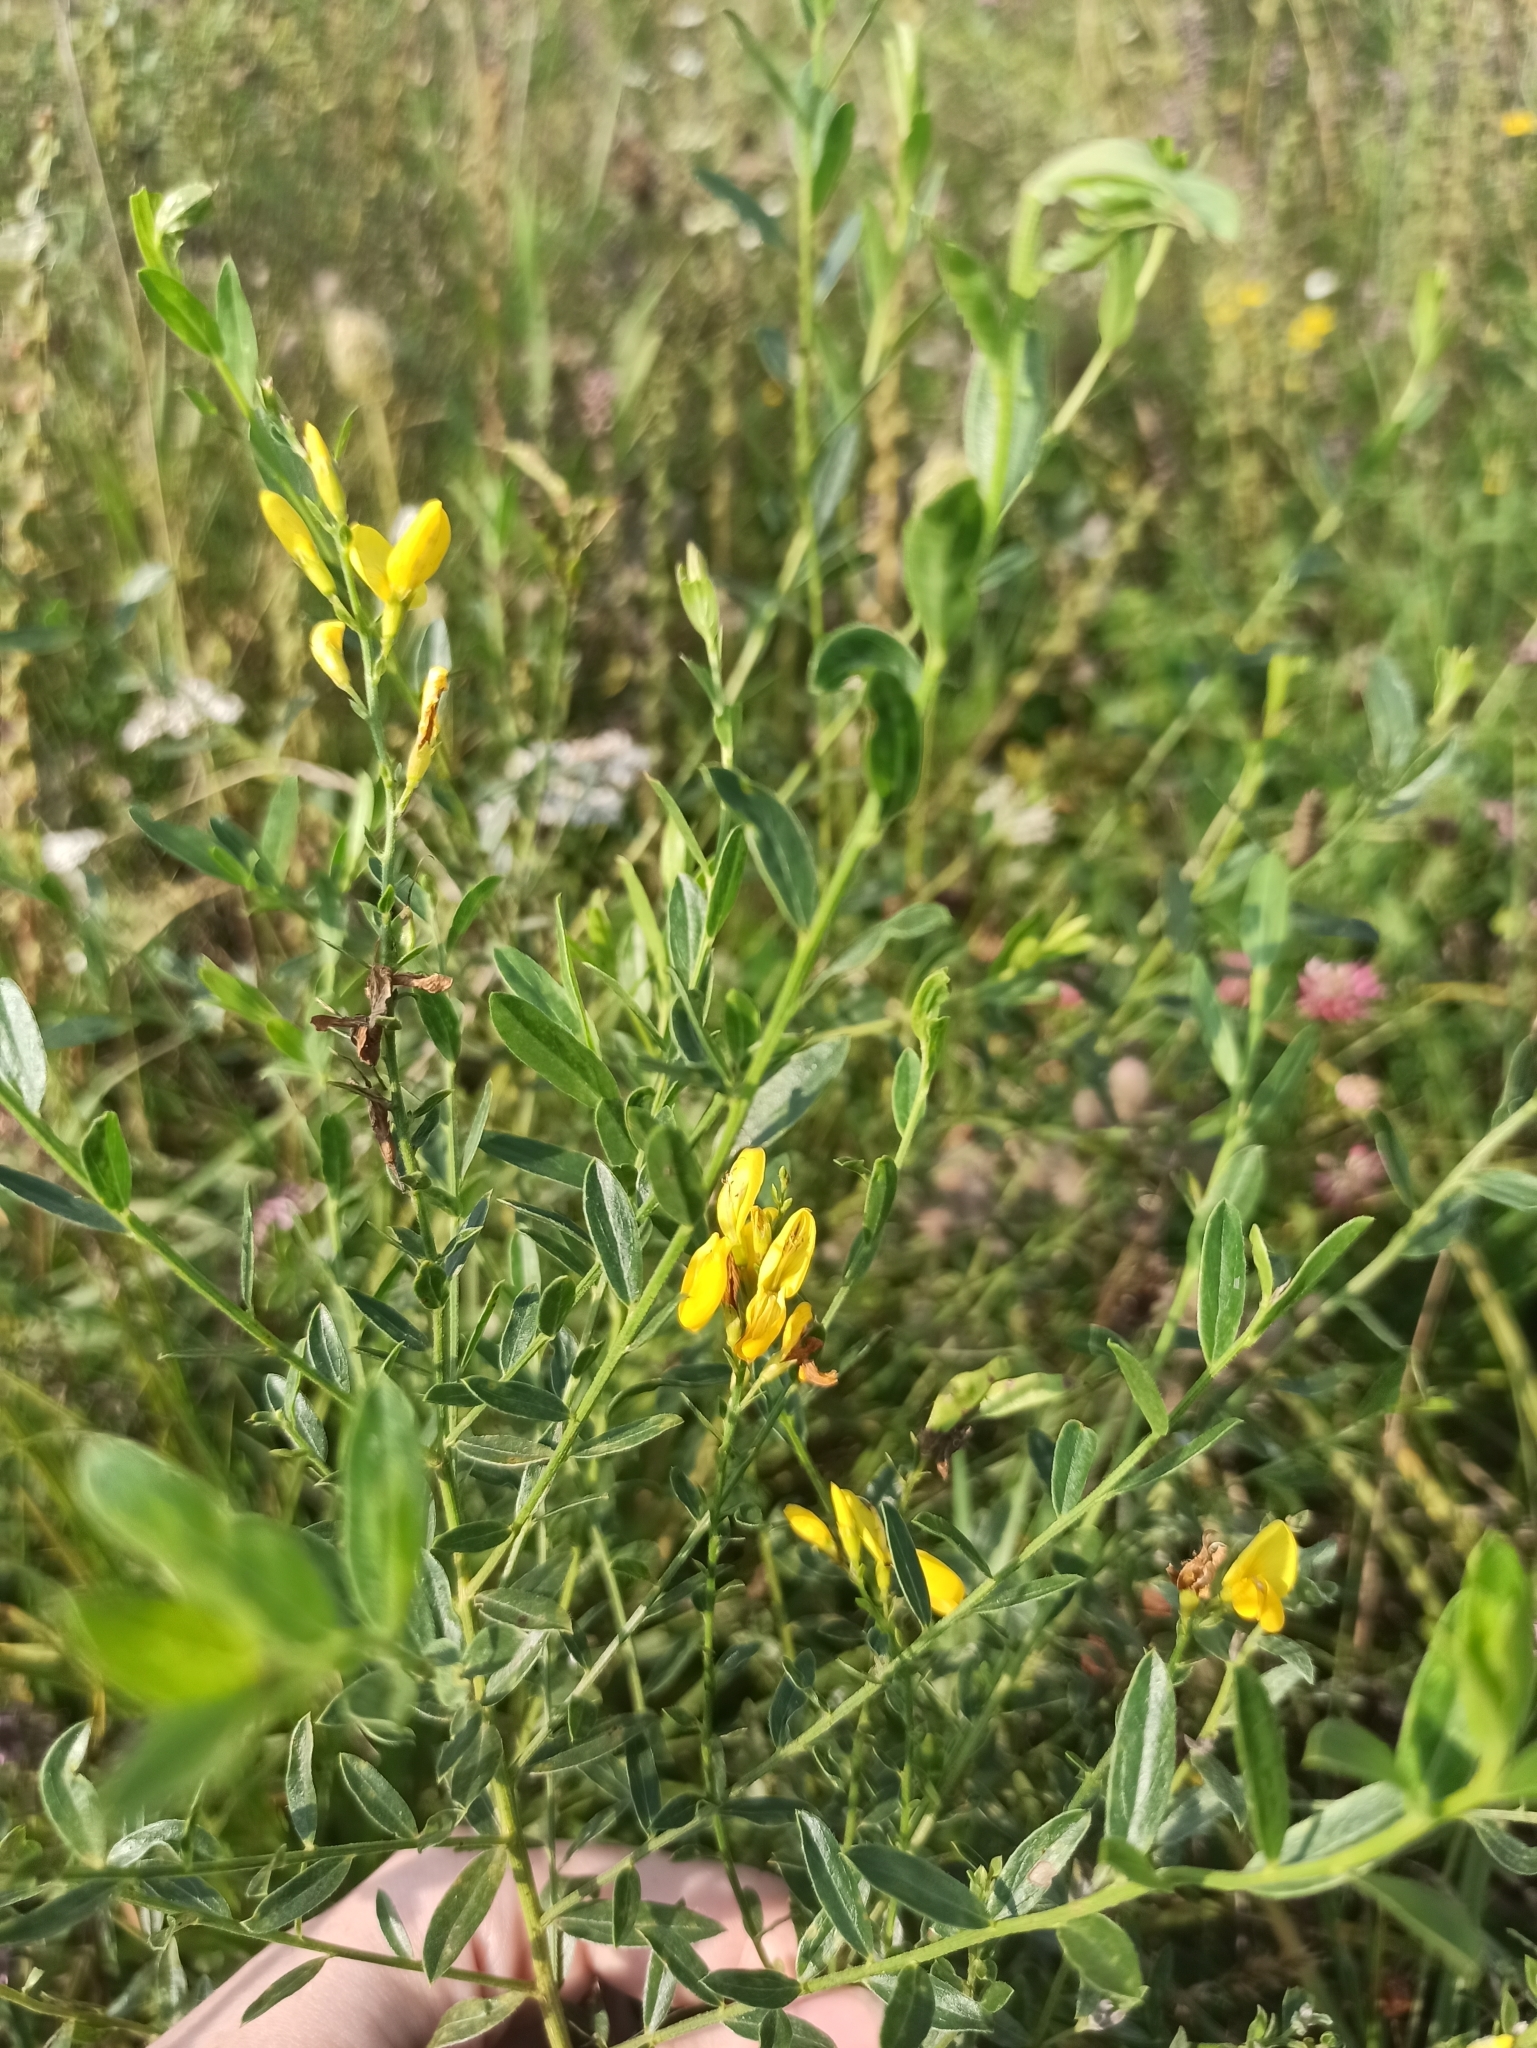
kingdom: Plantae
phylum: Tracheophyta
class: Magnoliopsida
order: Fabales
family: Fabaceae
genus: Genista
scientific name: Genista tinctoria
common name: Dyer's greenweed
